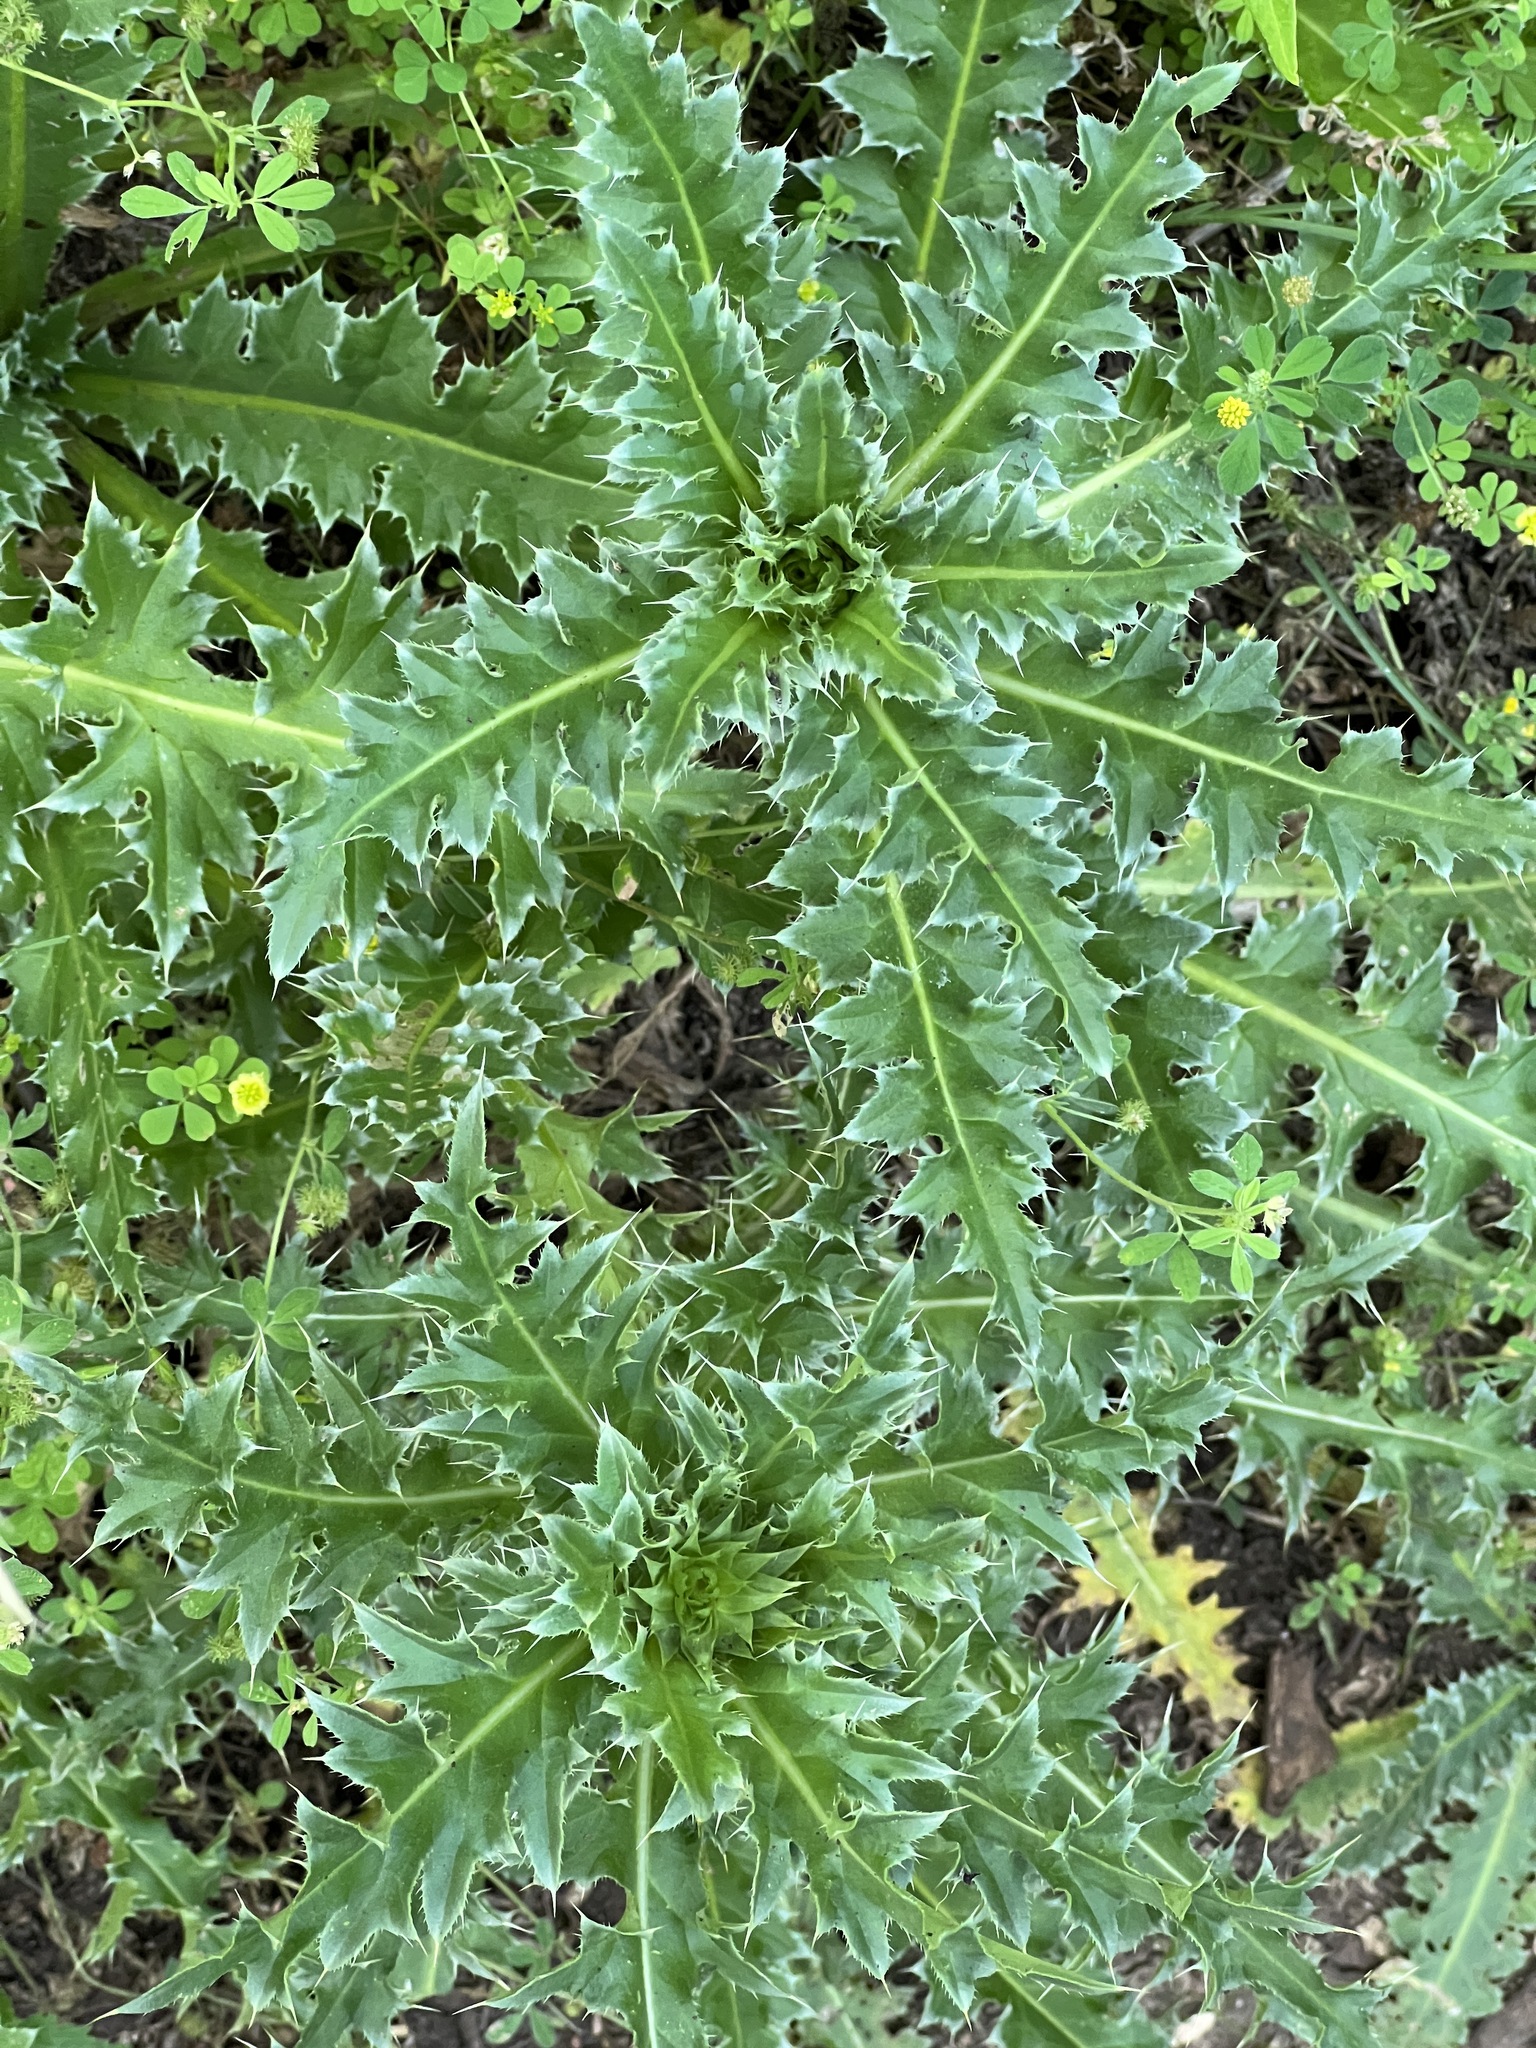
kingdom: Plantae
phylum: Tracheophyta
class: Magnoliopsida
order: Asterales
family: Asteraceae
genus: Carduus
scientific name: Carduus nutans
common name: Musk thistle
